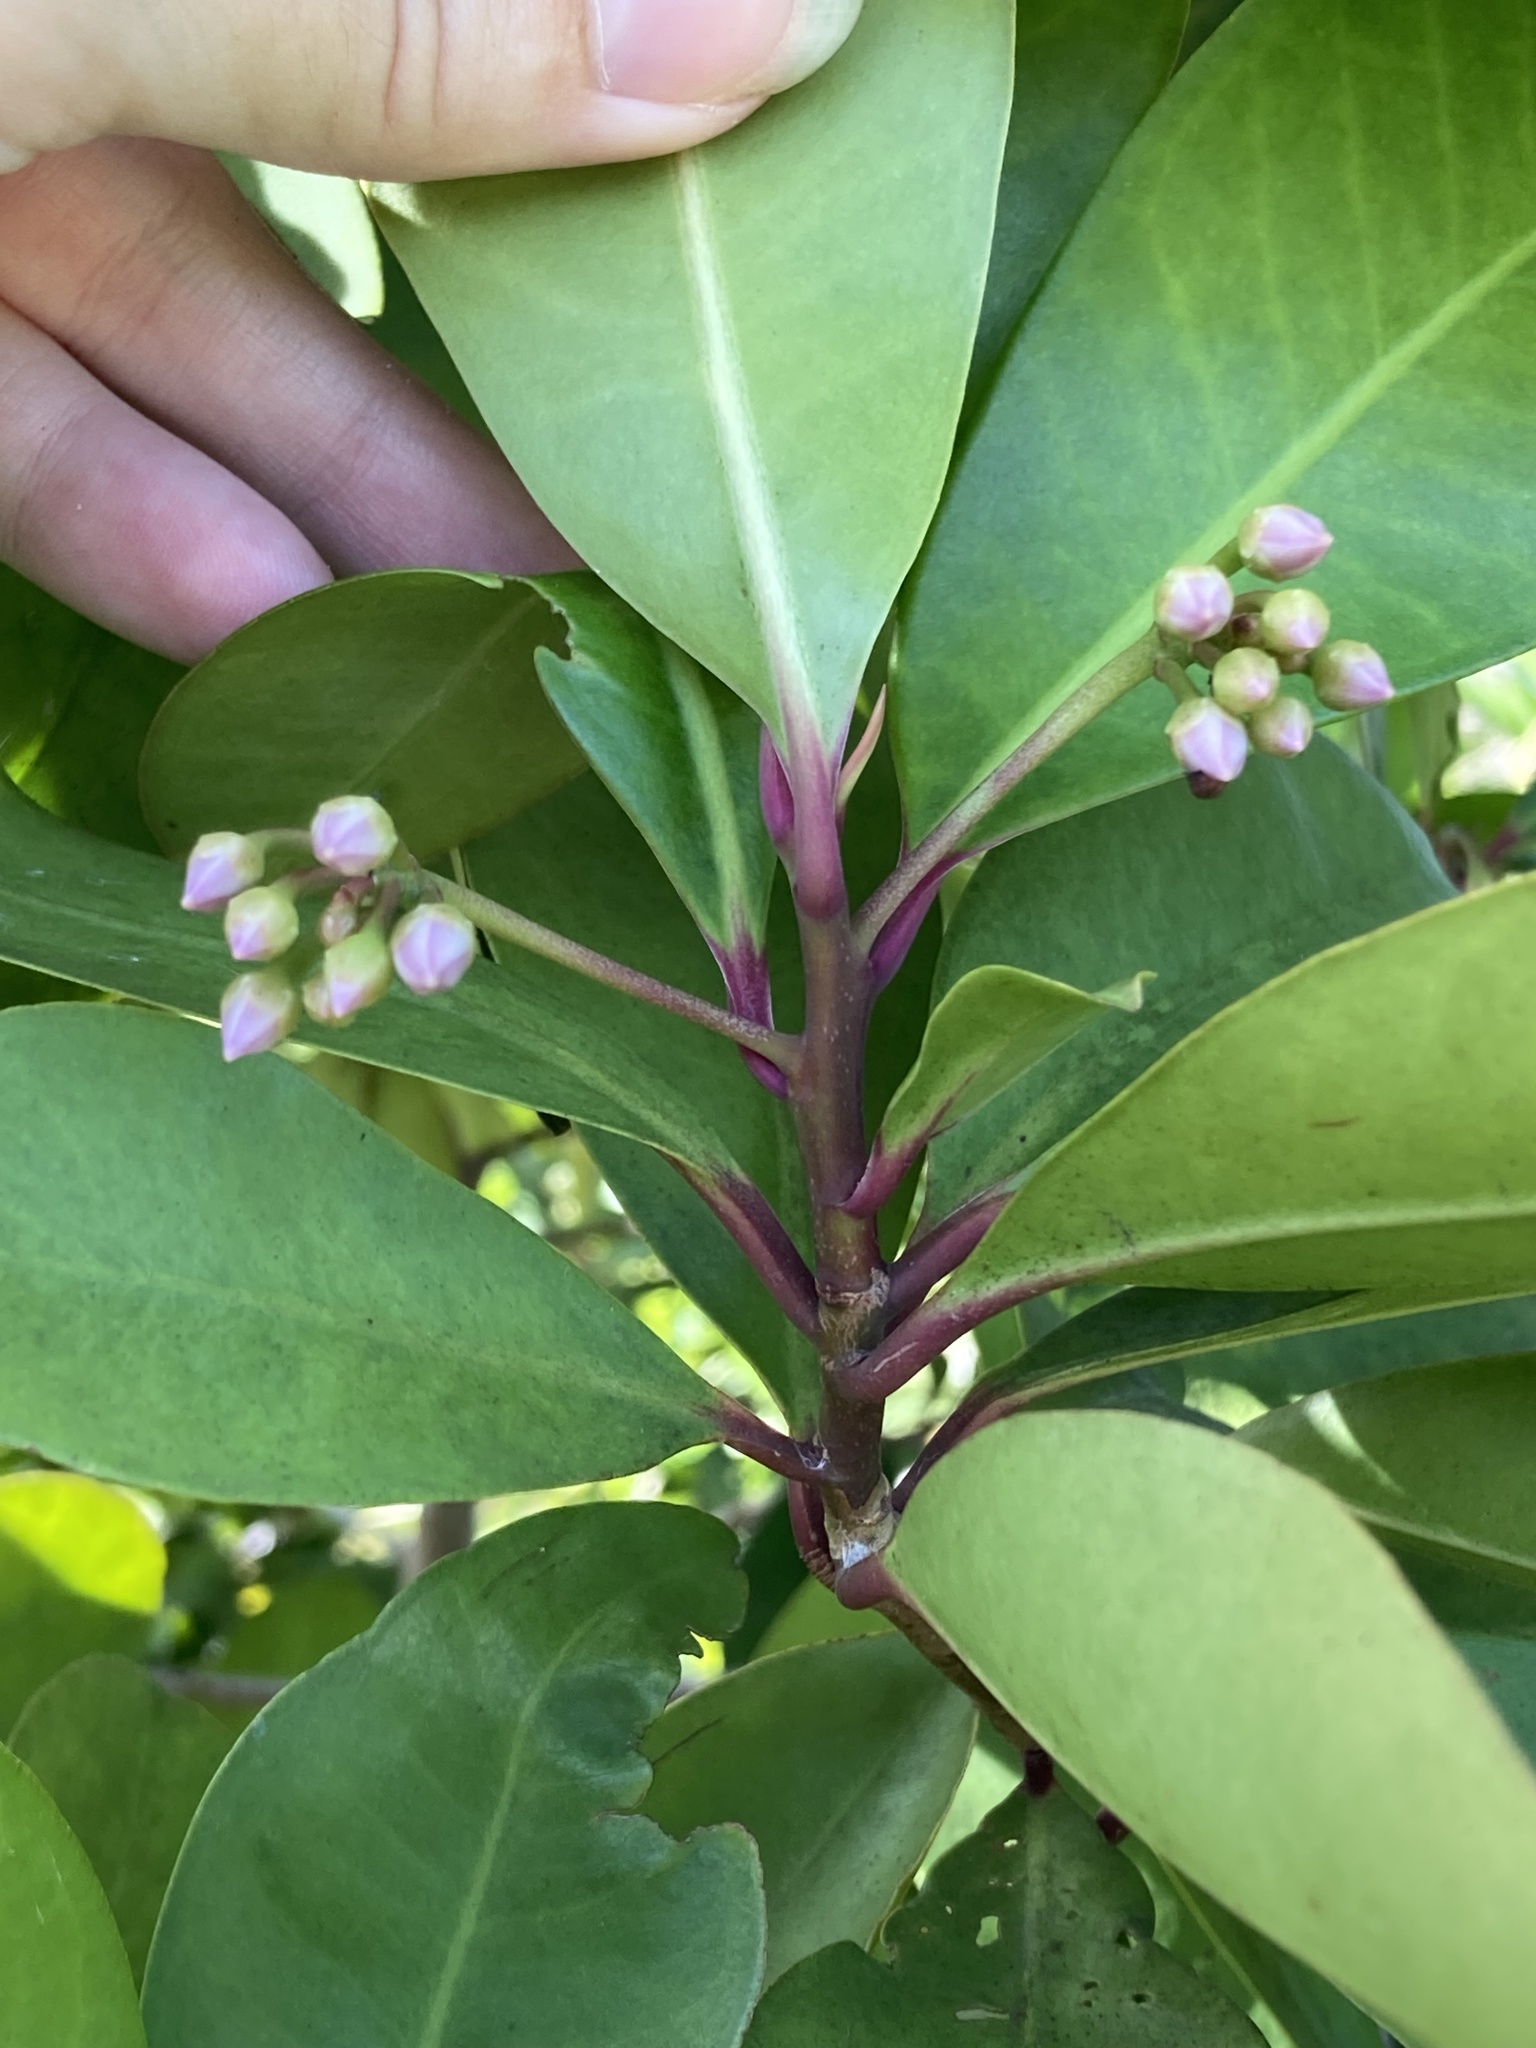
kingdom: Plantae
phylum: Tracheophyta
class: Magnoliopsida
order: Ericales
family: Primulaceae
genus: Ardisia
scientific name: Ardisia elliptica
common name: Shoebutton
